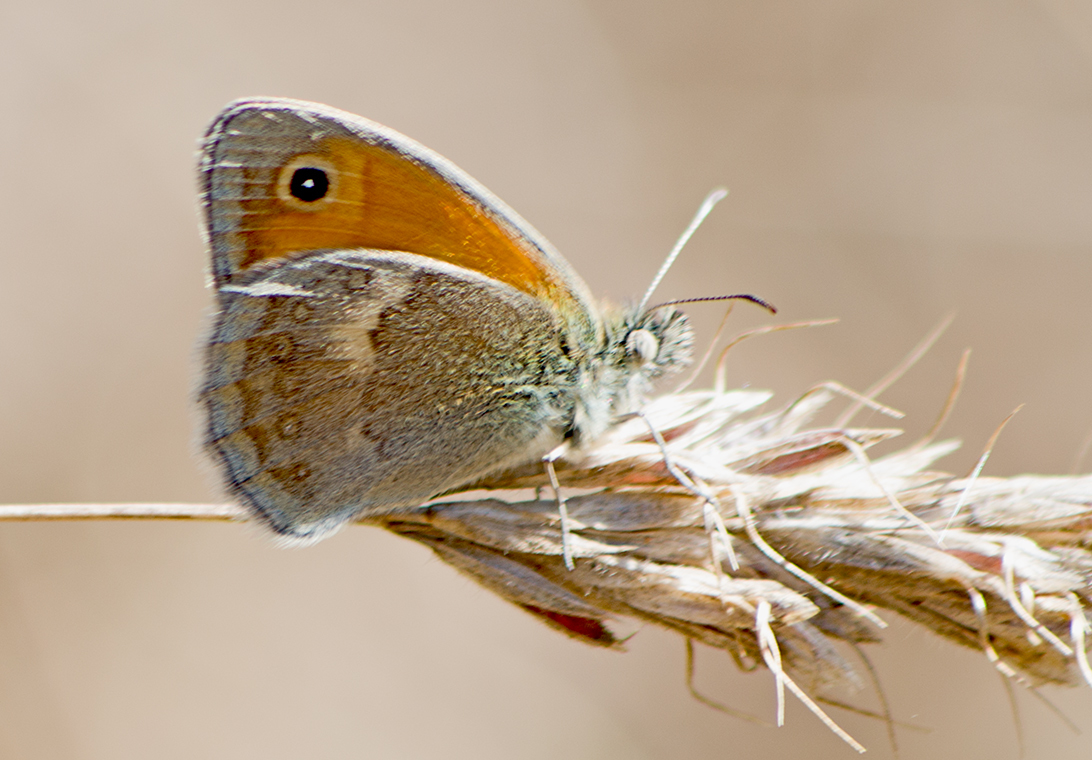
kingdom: Animalia
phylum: Arthropoda
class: Insecta
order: Lepidoptera
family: Nymphalidae
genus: Coenonympha
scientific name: Coenonympha pamphilus
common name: Small heath
